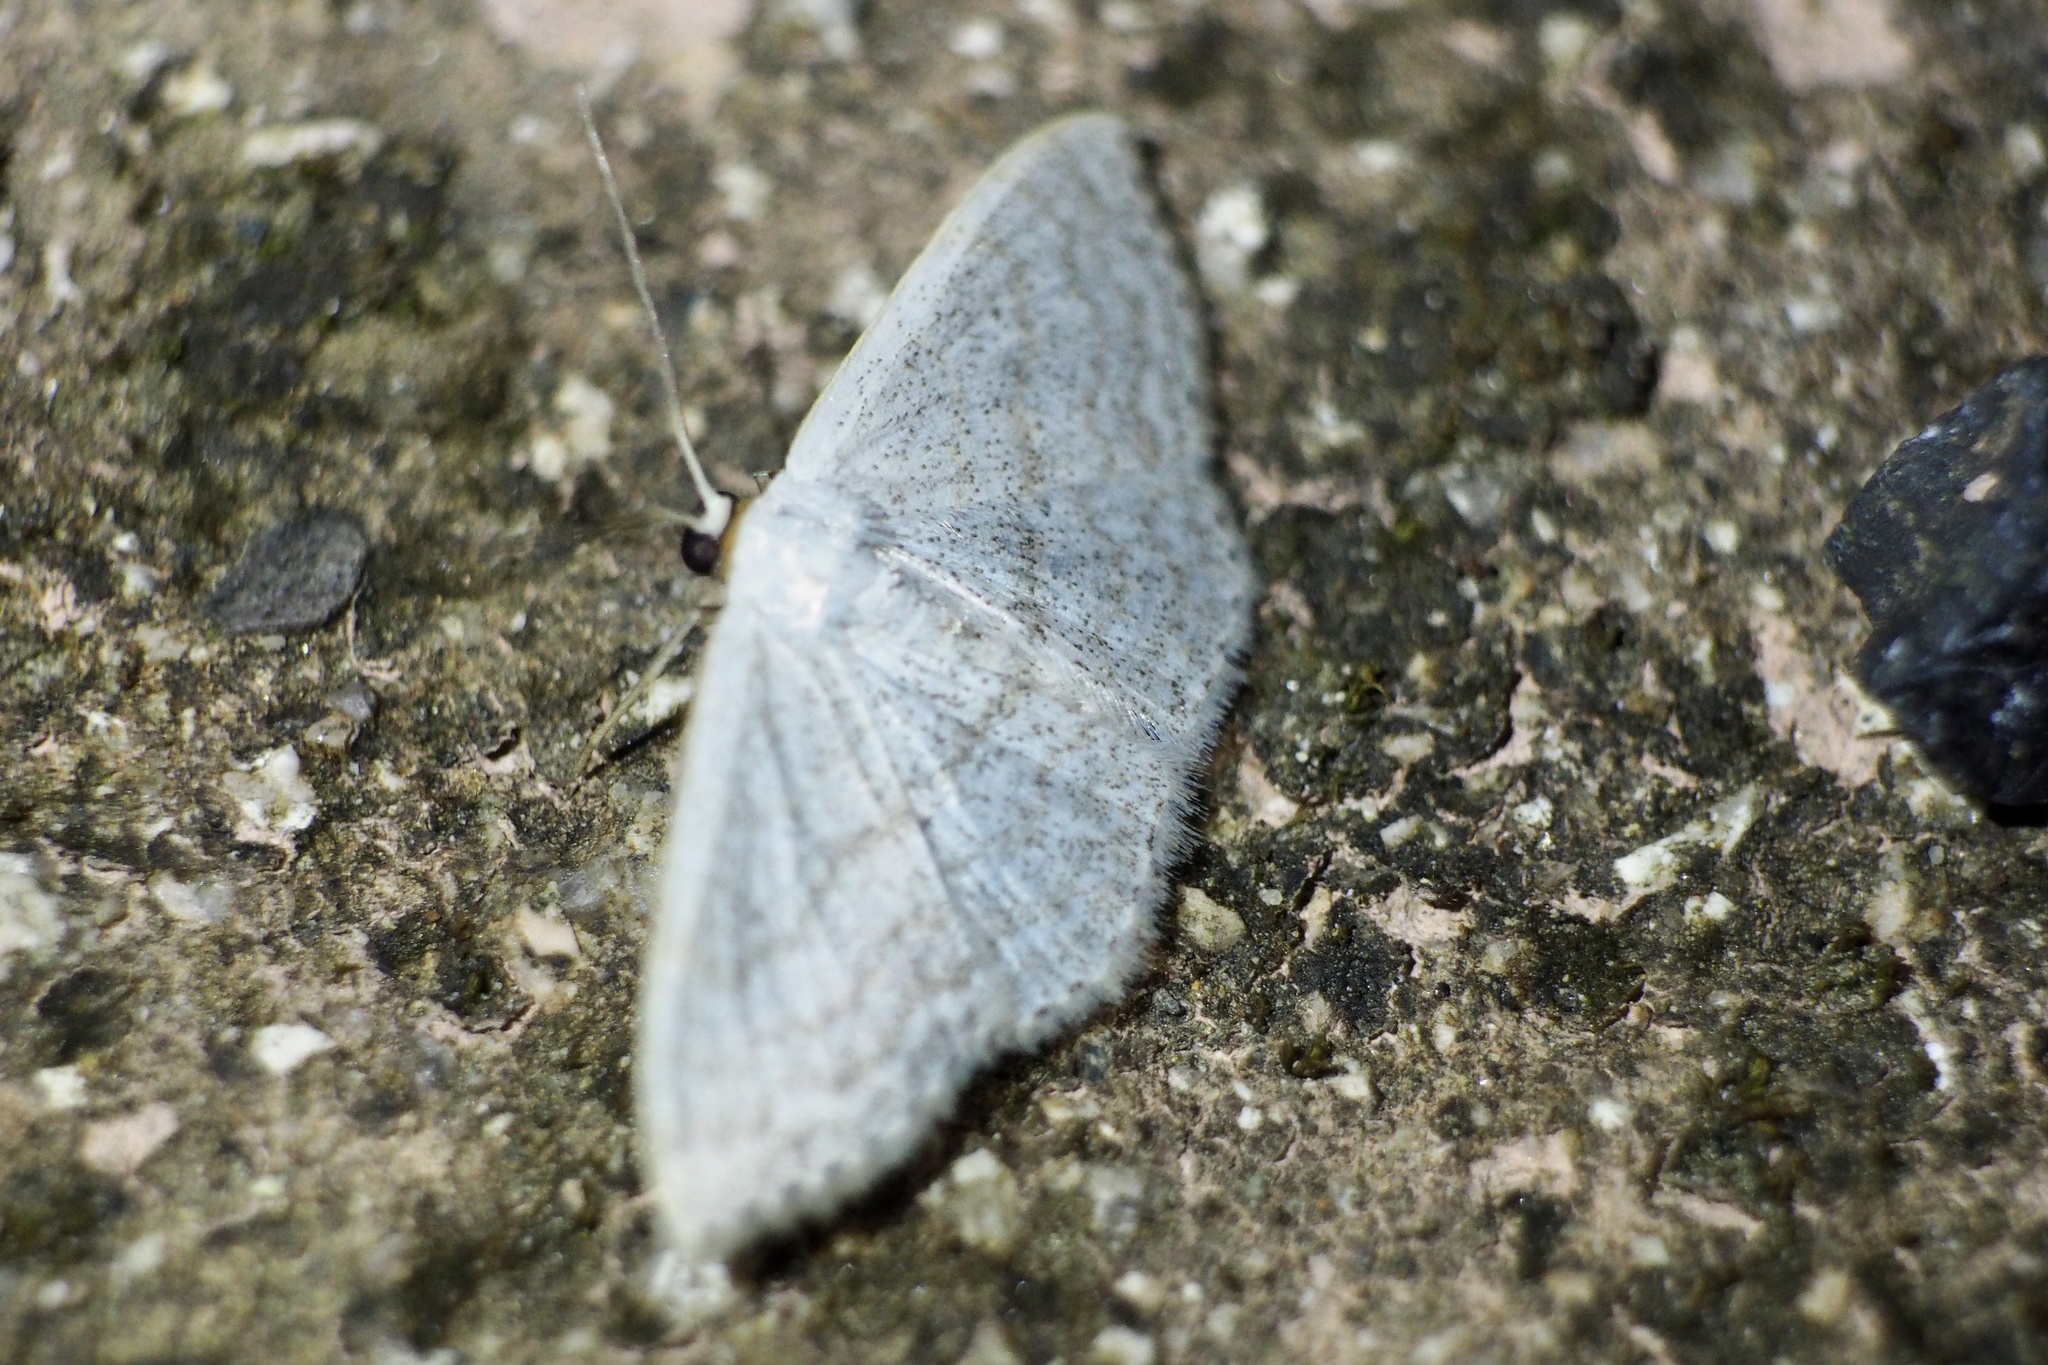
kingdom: Animalia
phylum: Arthropoda
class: Insecta
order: Lepidoptera
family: Geometridae
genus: Scopula
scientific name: Scopula epiorrhoe
